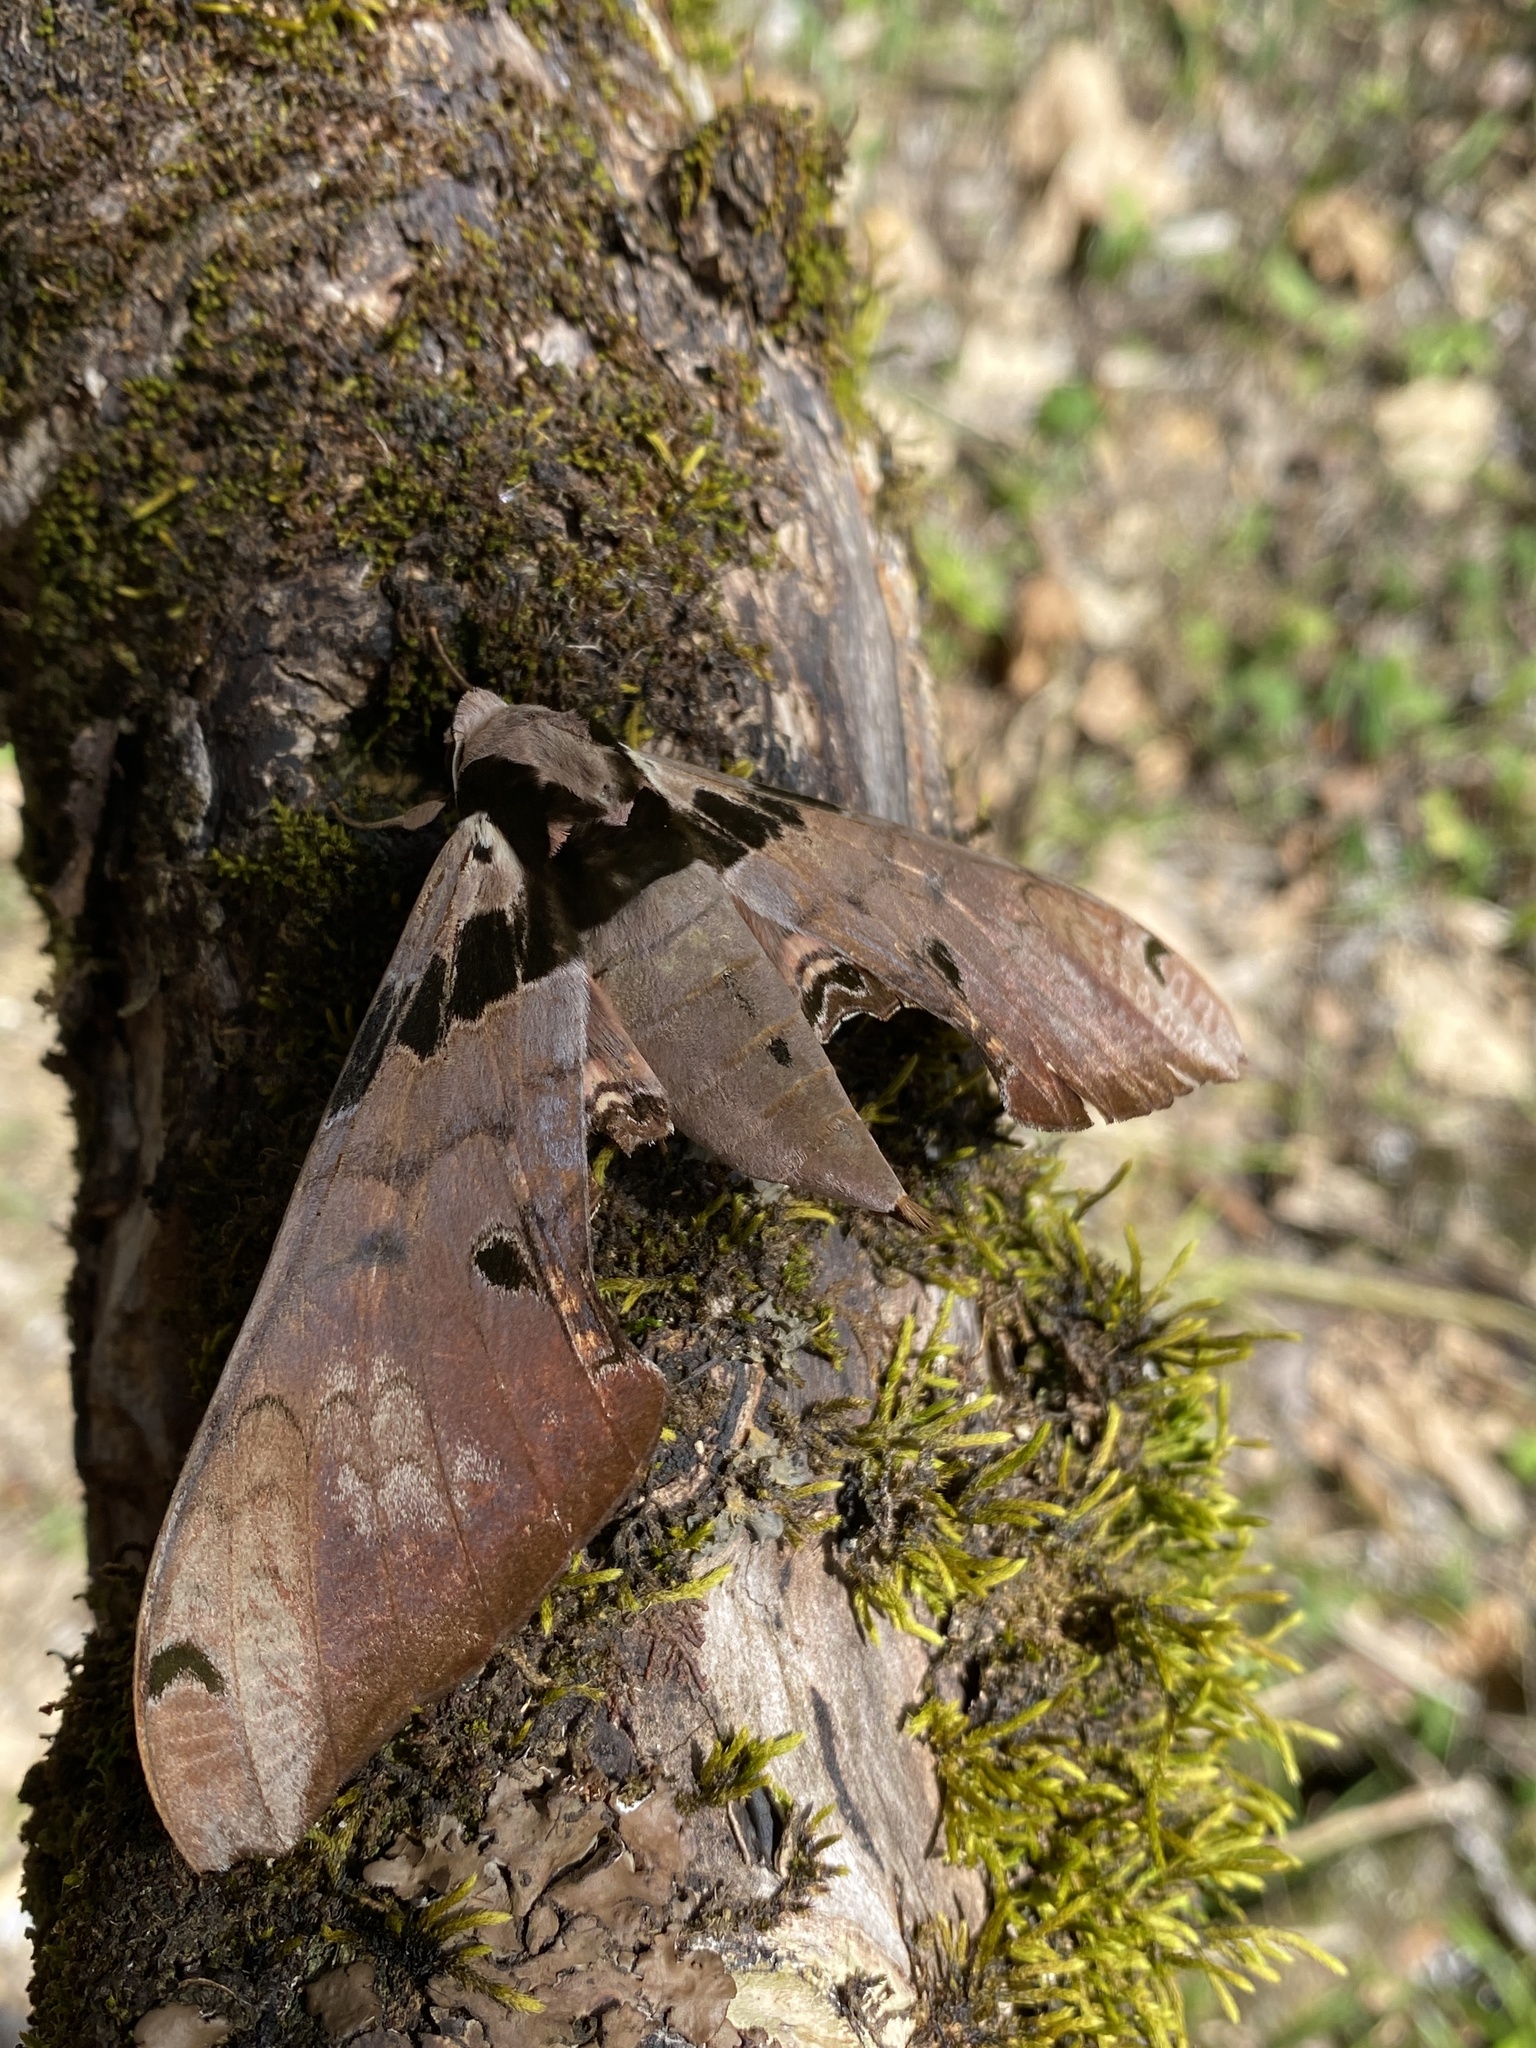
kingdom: Animalia
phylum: Arthropoda
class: Insecta
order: Lepidoptera
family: Sphingidae
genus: Adhemarius
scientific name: Adhemarius gannascus
